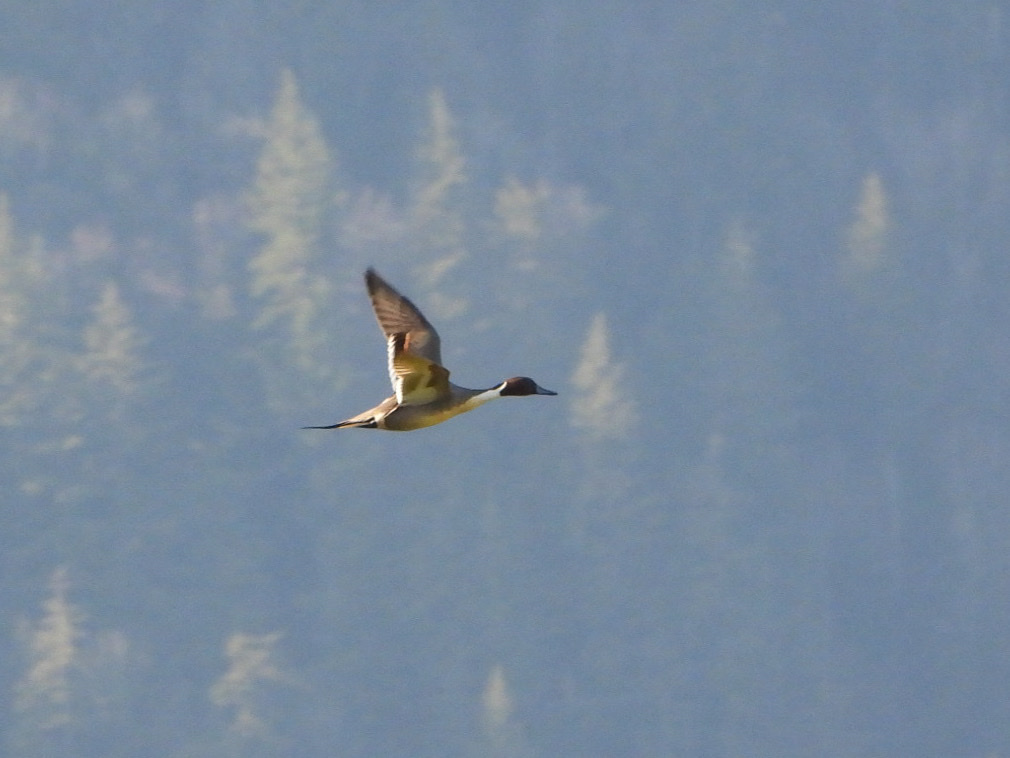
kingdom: Animalia
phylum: Chordata
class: Aves
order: Anseriformes
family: Anatidae
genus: Anas
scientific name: Anas acuta
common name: Northern pintail
